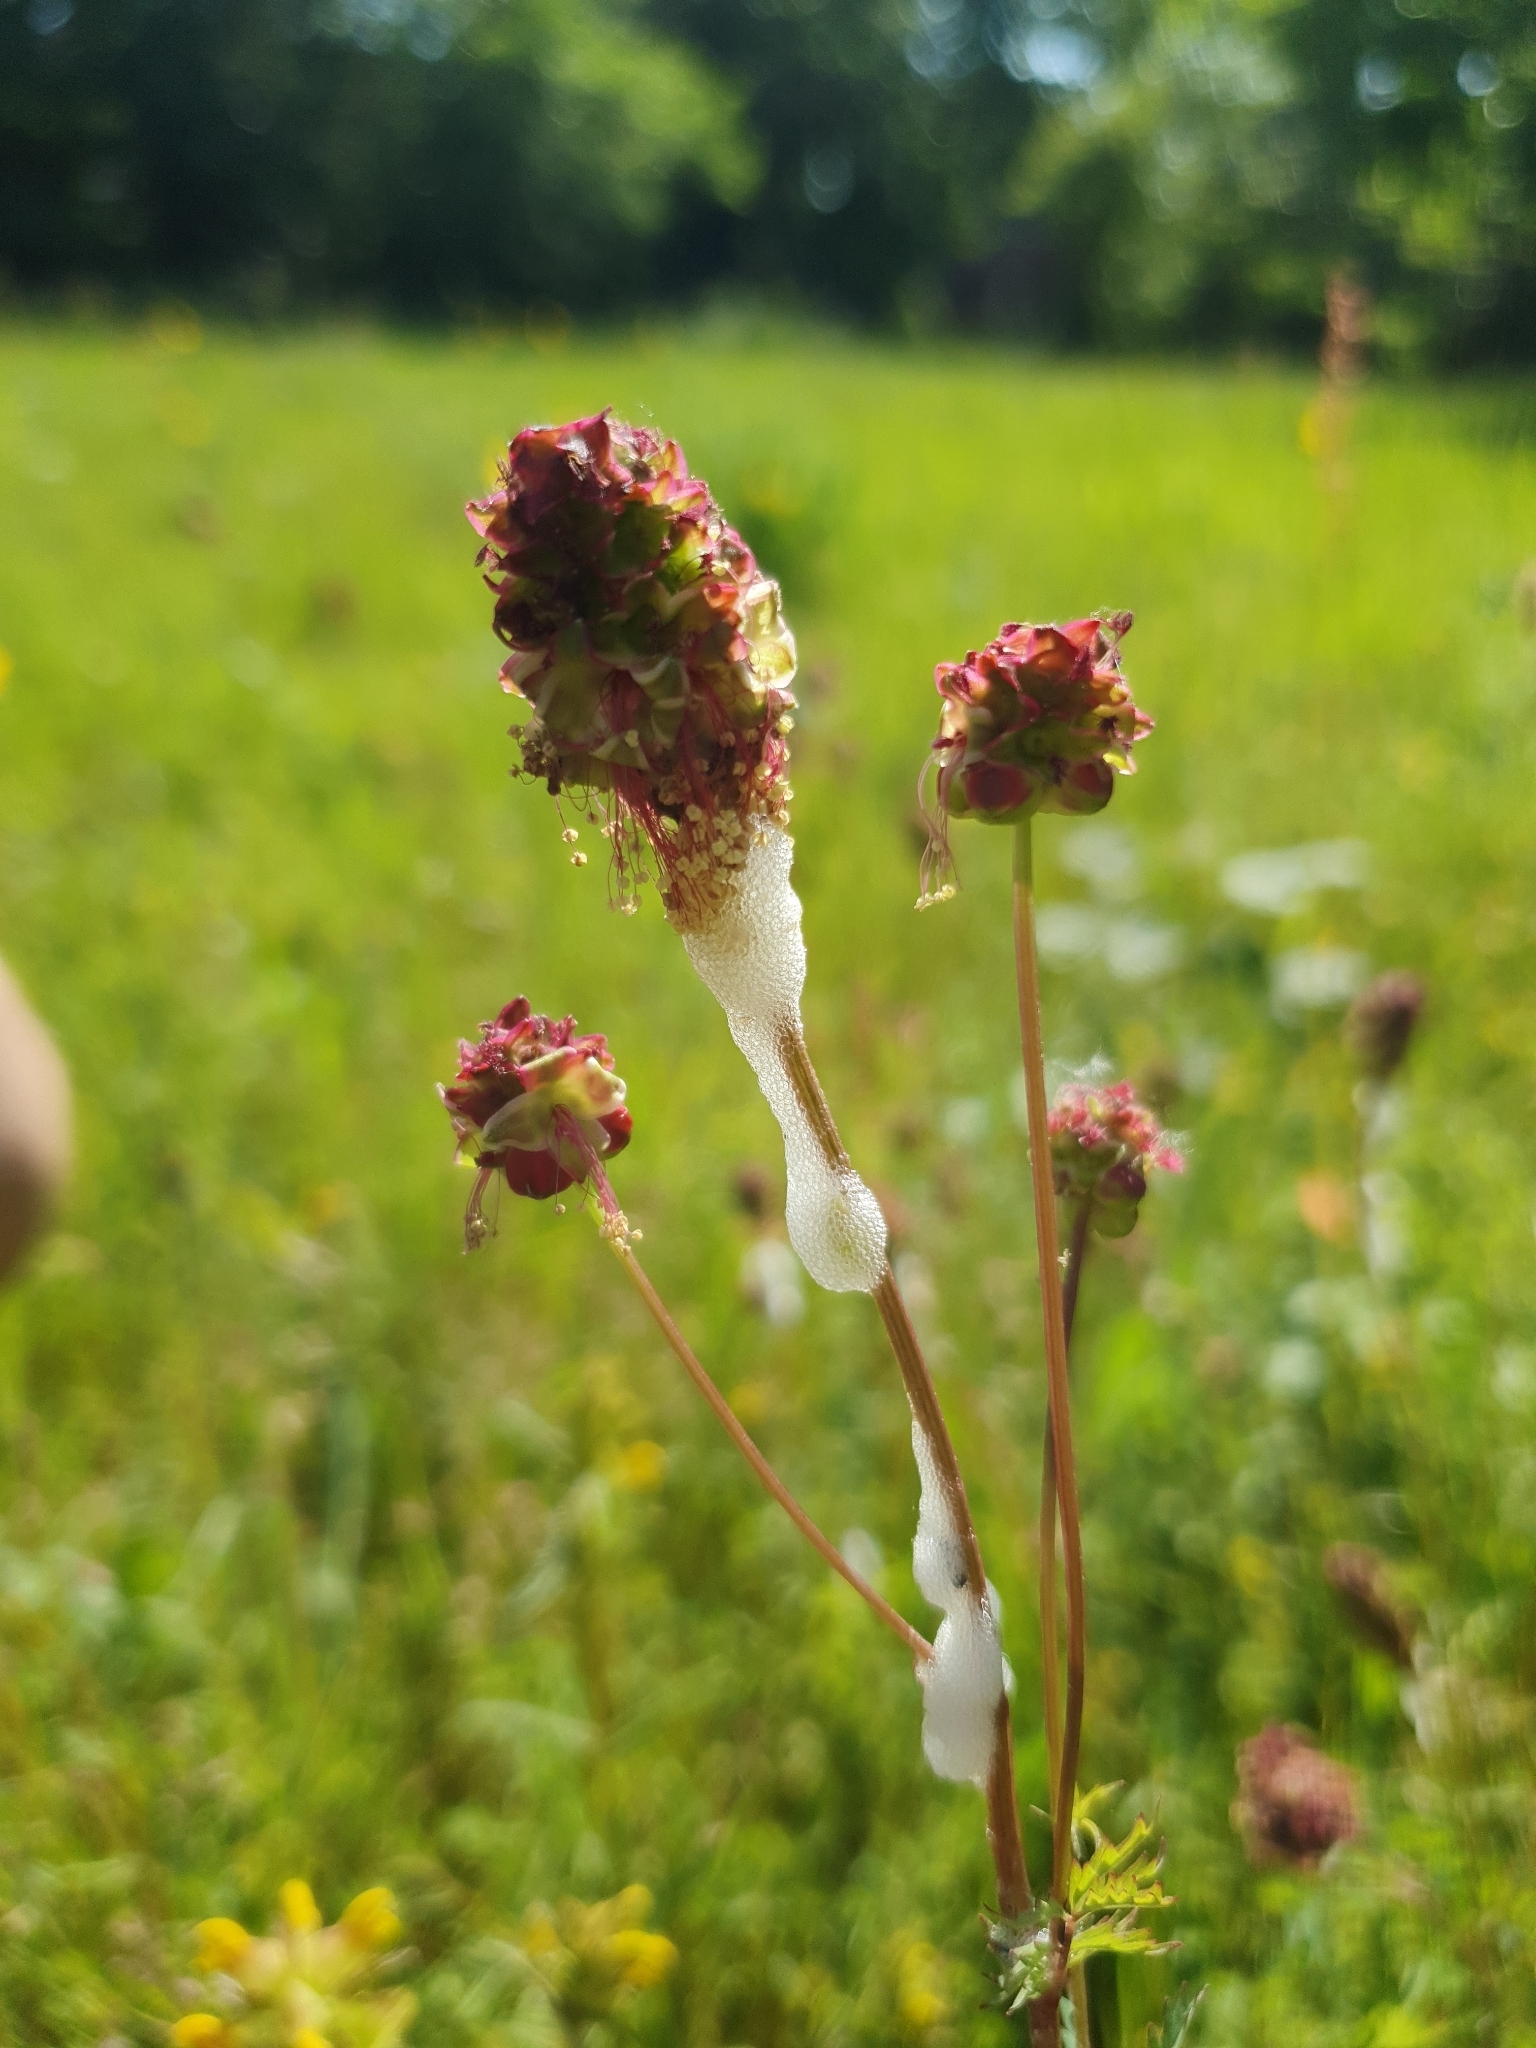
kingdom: Plantae
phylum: Tracheophyta
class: Magnoliopsida
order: Rosales
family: Rosaceae
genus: Poterium
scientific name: Poterium sanguisorba
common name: Salad burnet
